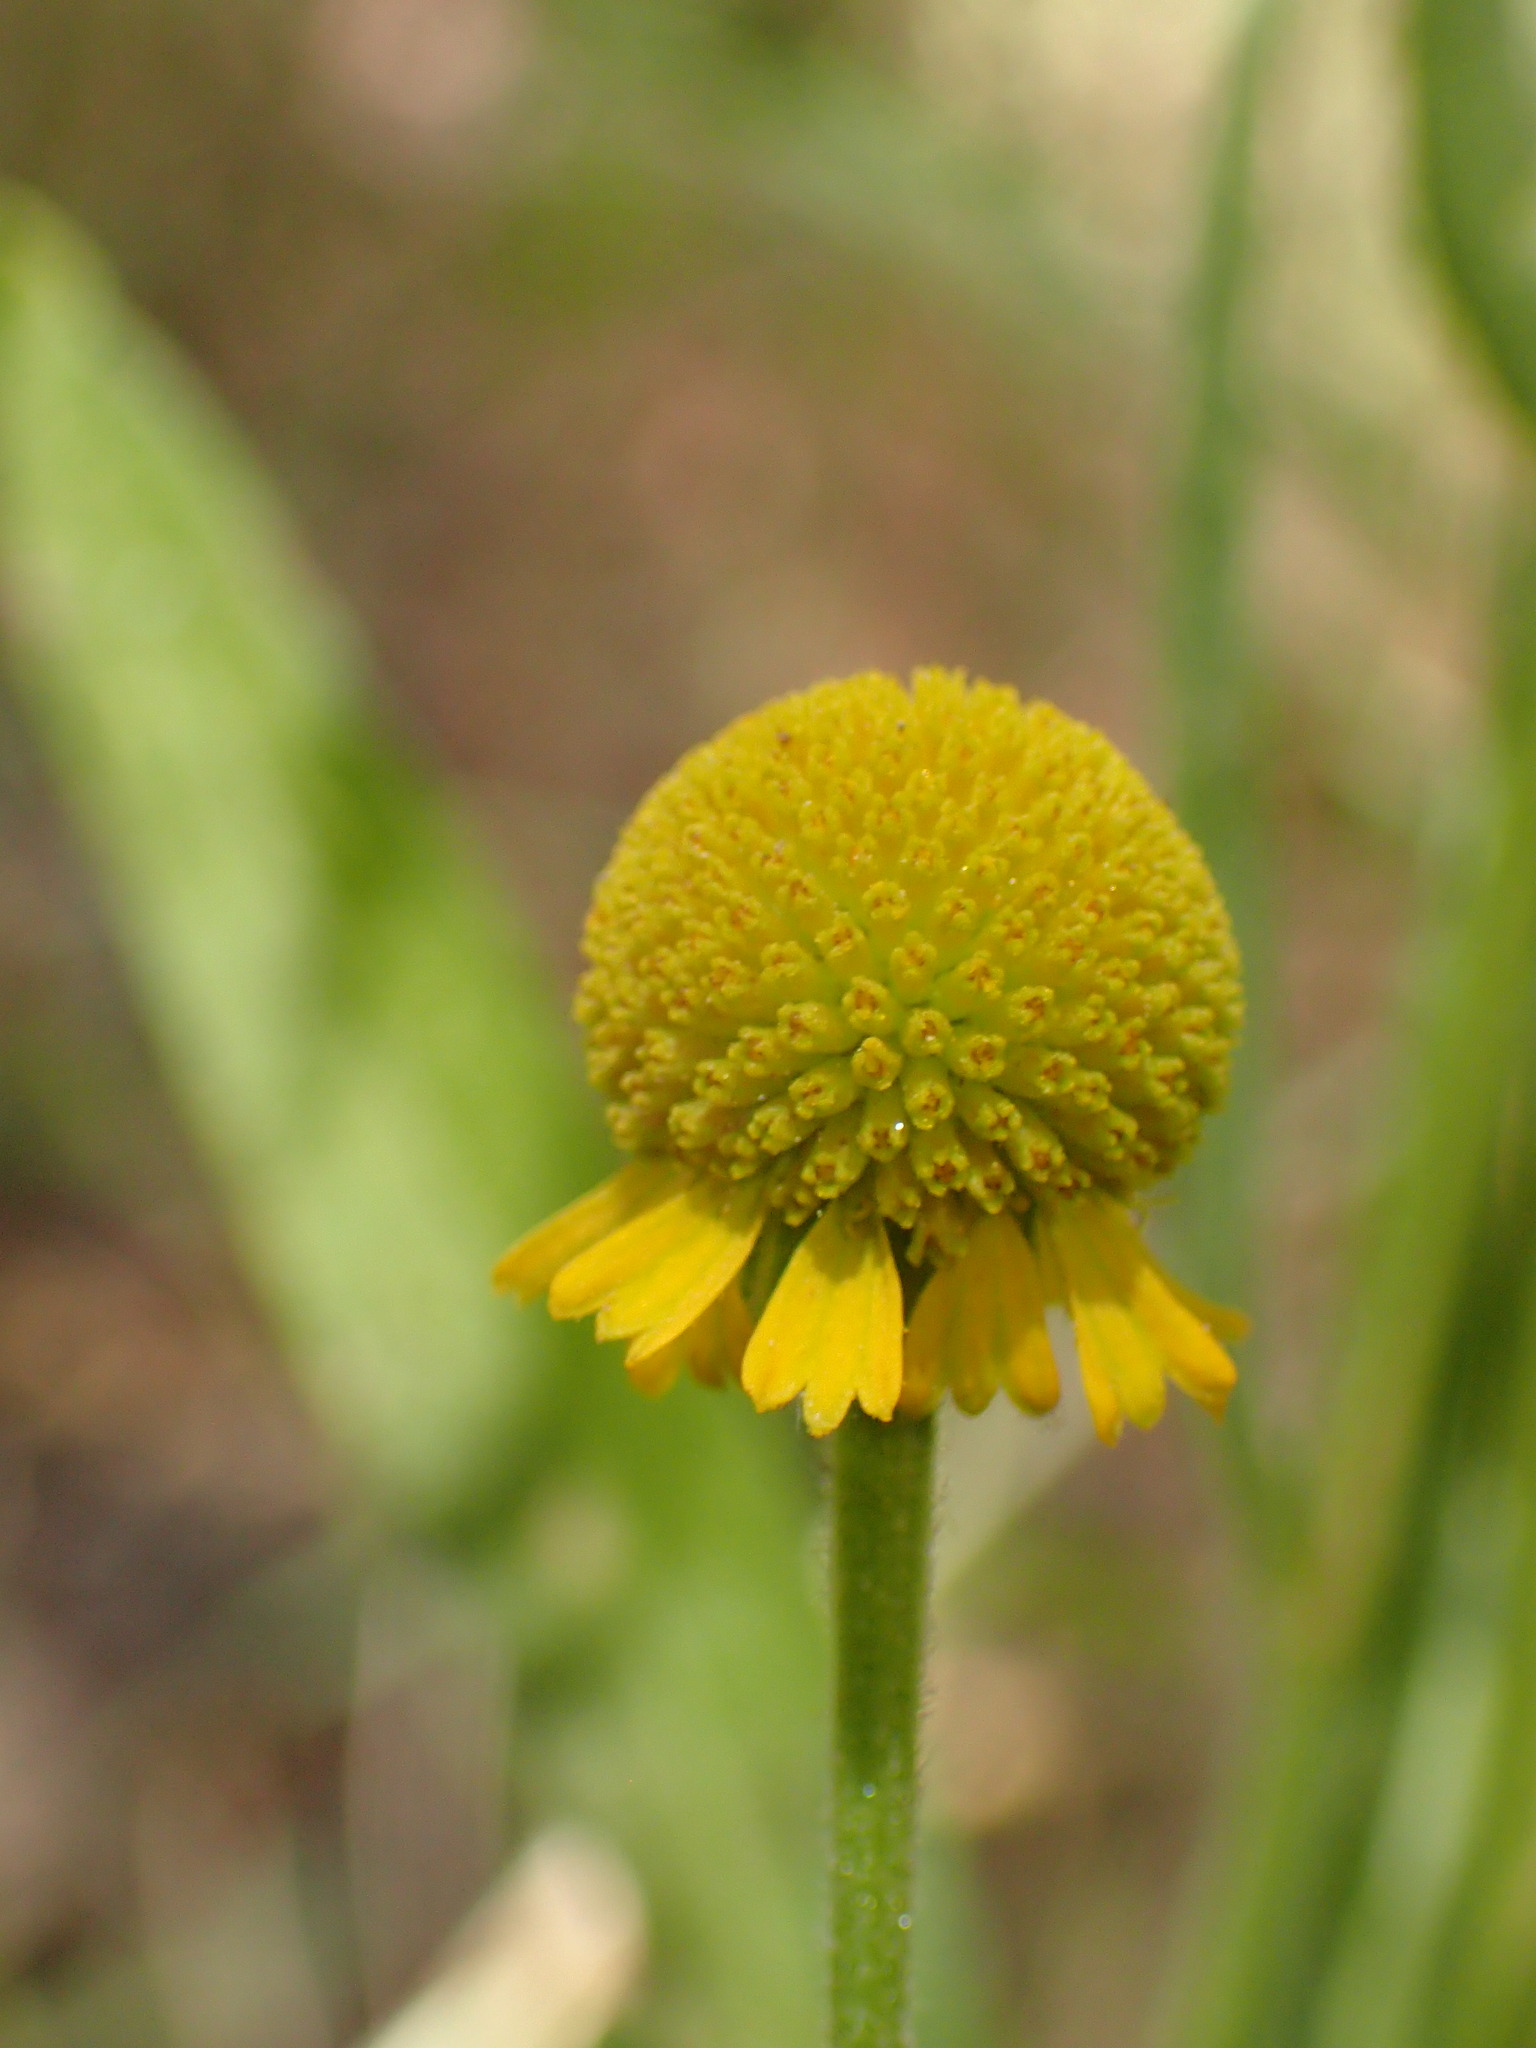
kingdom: Plantae
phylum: Tracheophyta
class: Magnoliopsida
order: Asterales
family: Asteraceae
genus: Helenium
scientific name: Helenium puberulum
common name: Sneezewort
